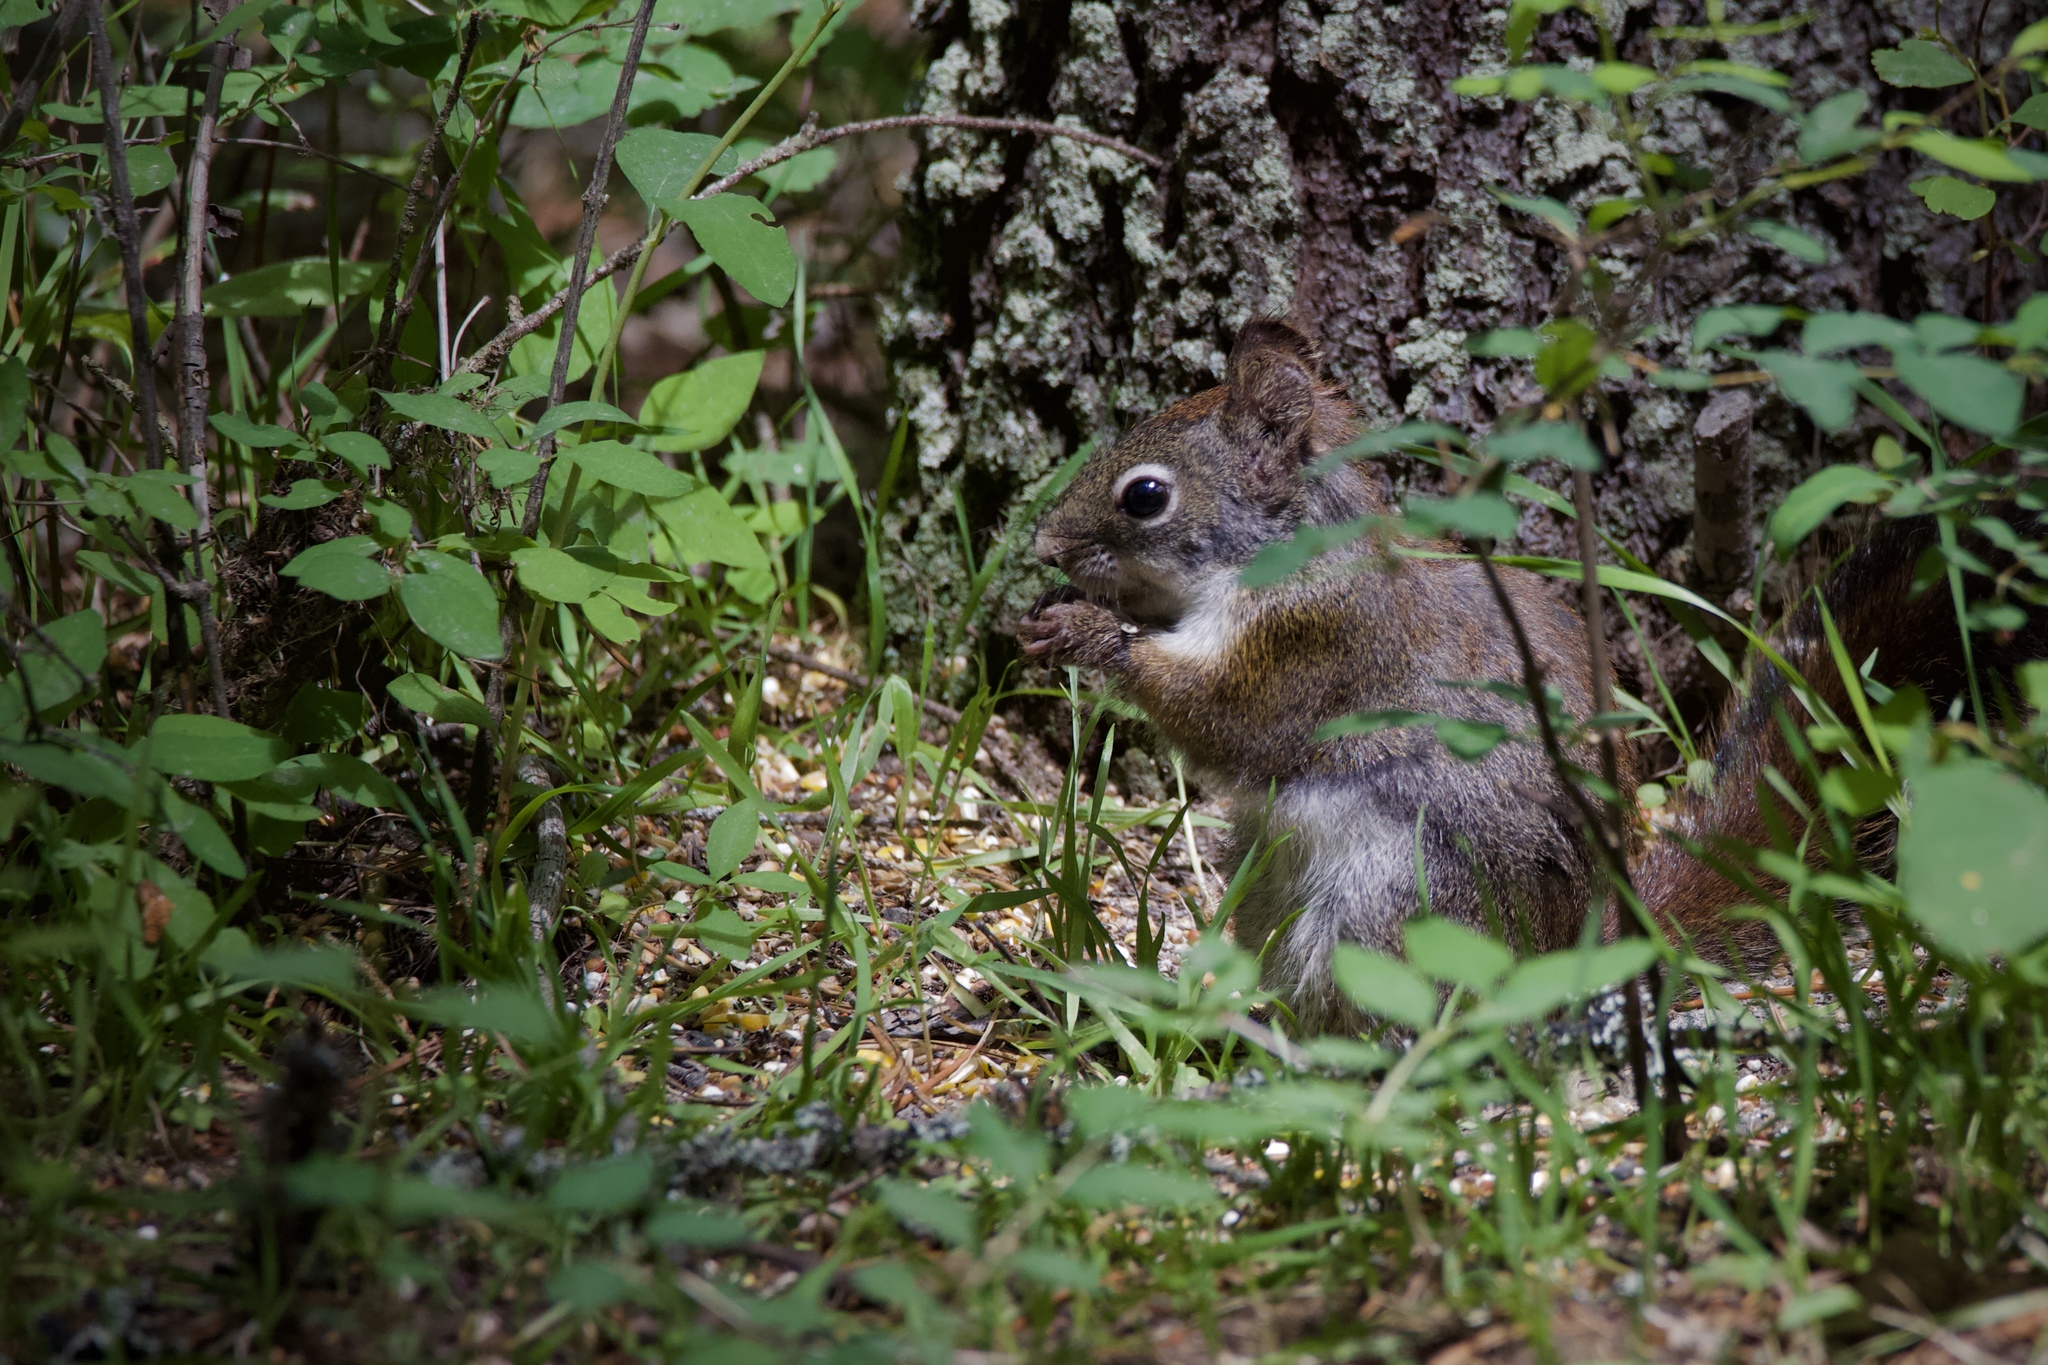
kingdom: Animalia
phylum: Chordata
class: Mammalia
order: Rodentia
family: Sciuridae
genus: Tamiasciurus
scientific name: Tamiasciurus hudsonicus
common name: Red squirrel
